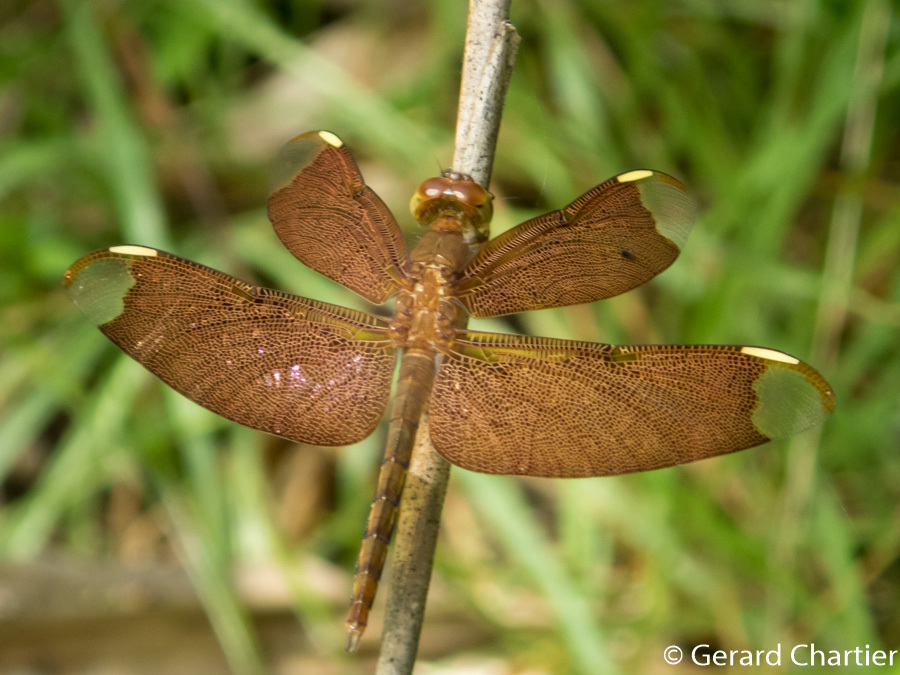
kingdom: Animalia
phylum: Arthropoda
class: Insecta
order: Odonata
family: Libellulidae
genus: Neurothemis
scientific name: Neurothemis fulvia
